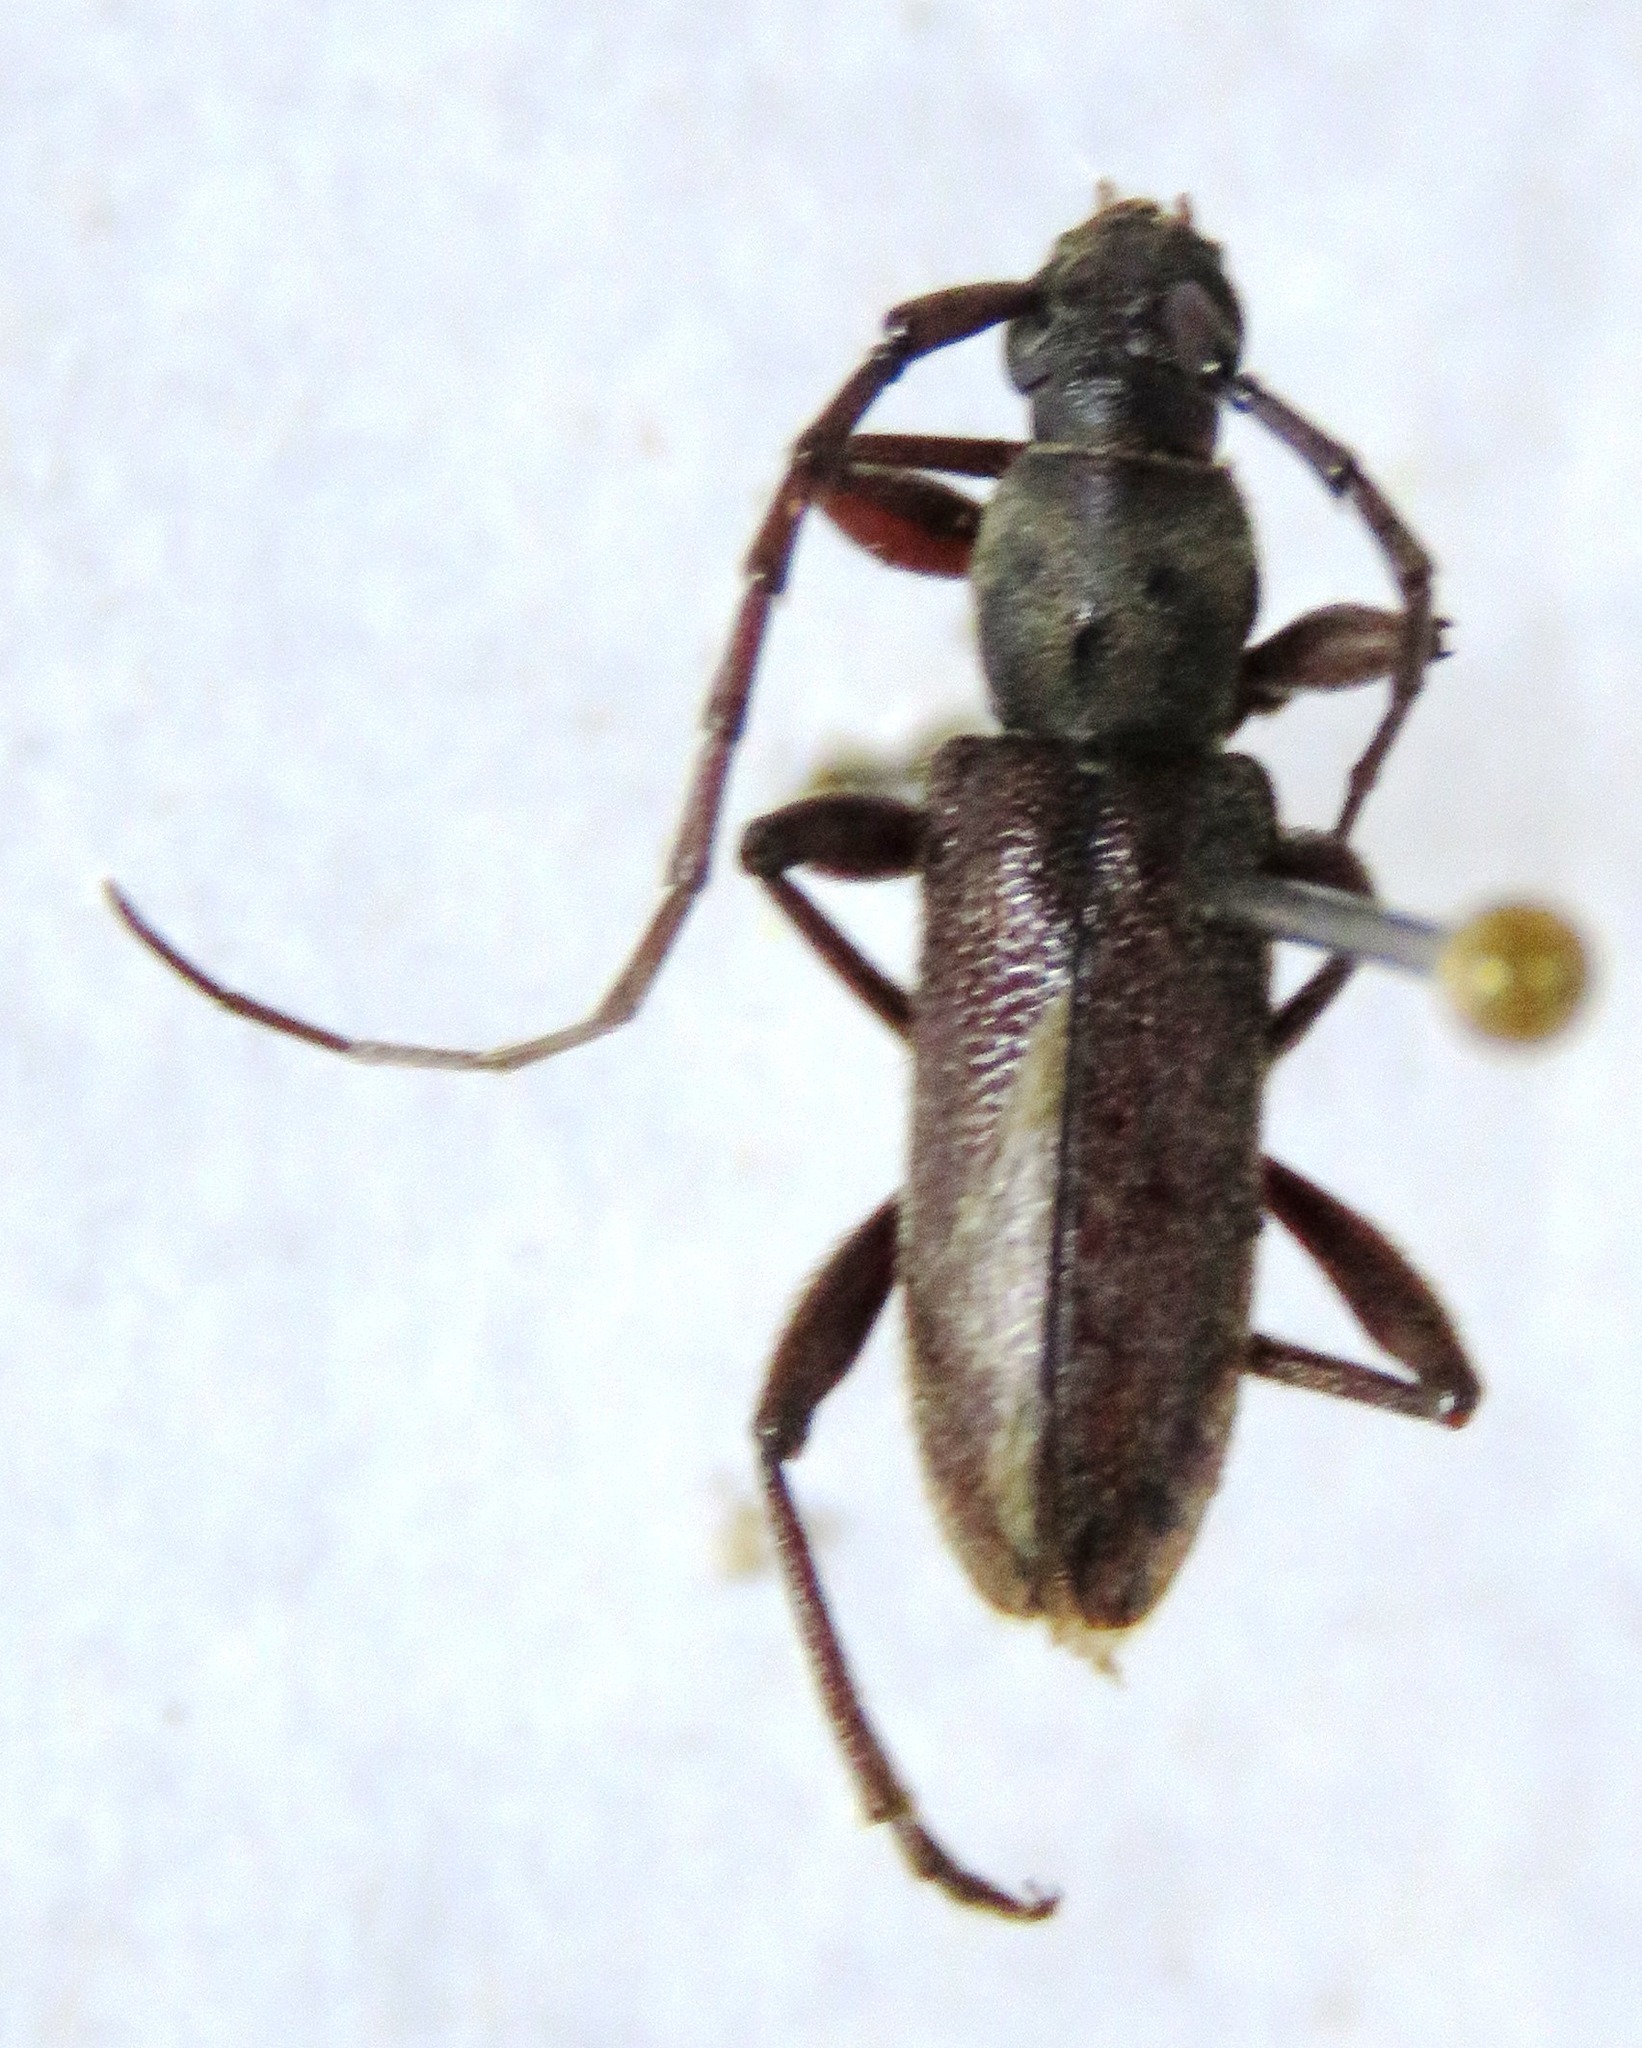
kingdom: Animalia
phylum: Arthropoda
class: Insecta
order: Coleoptera
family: Cerambycidae
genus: Anelaphus
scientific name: Anelaphus misellus
